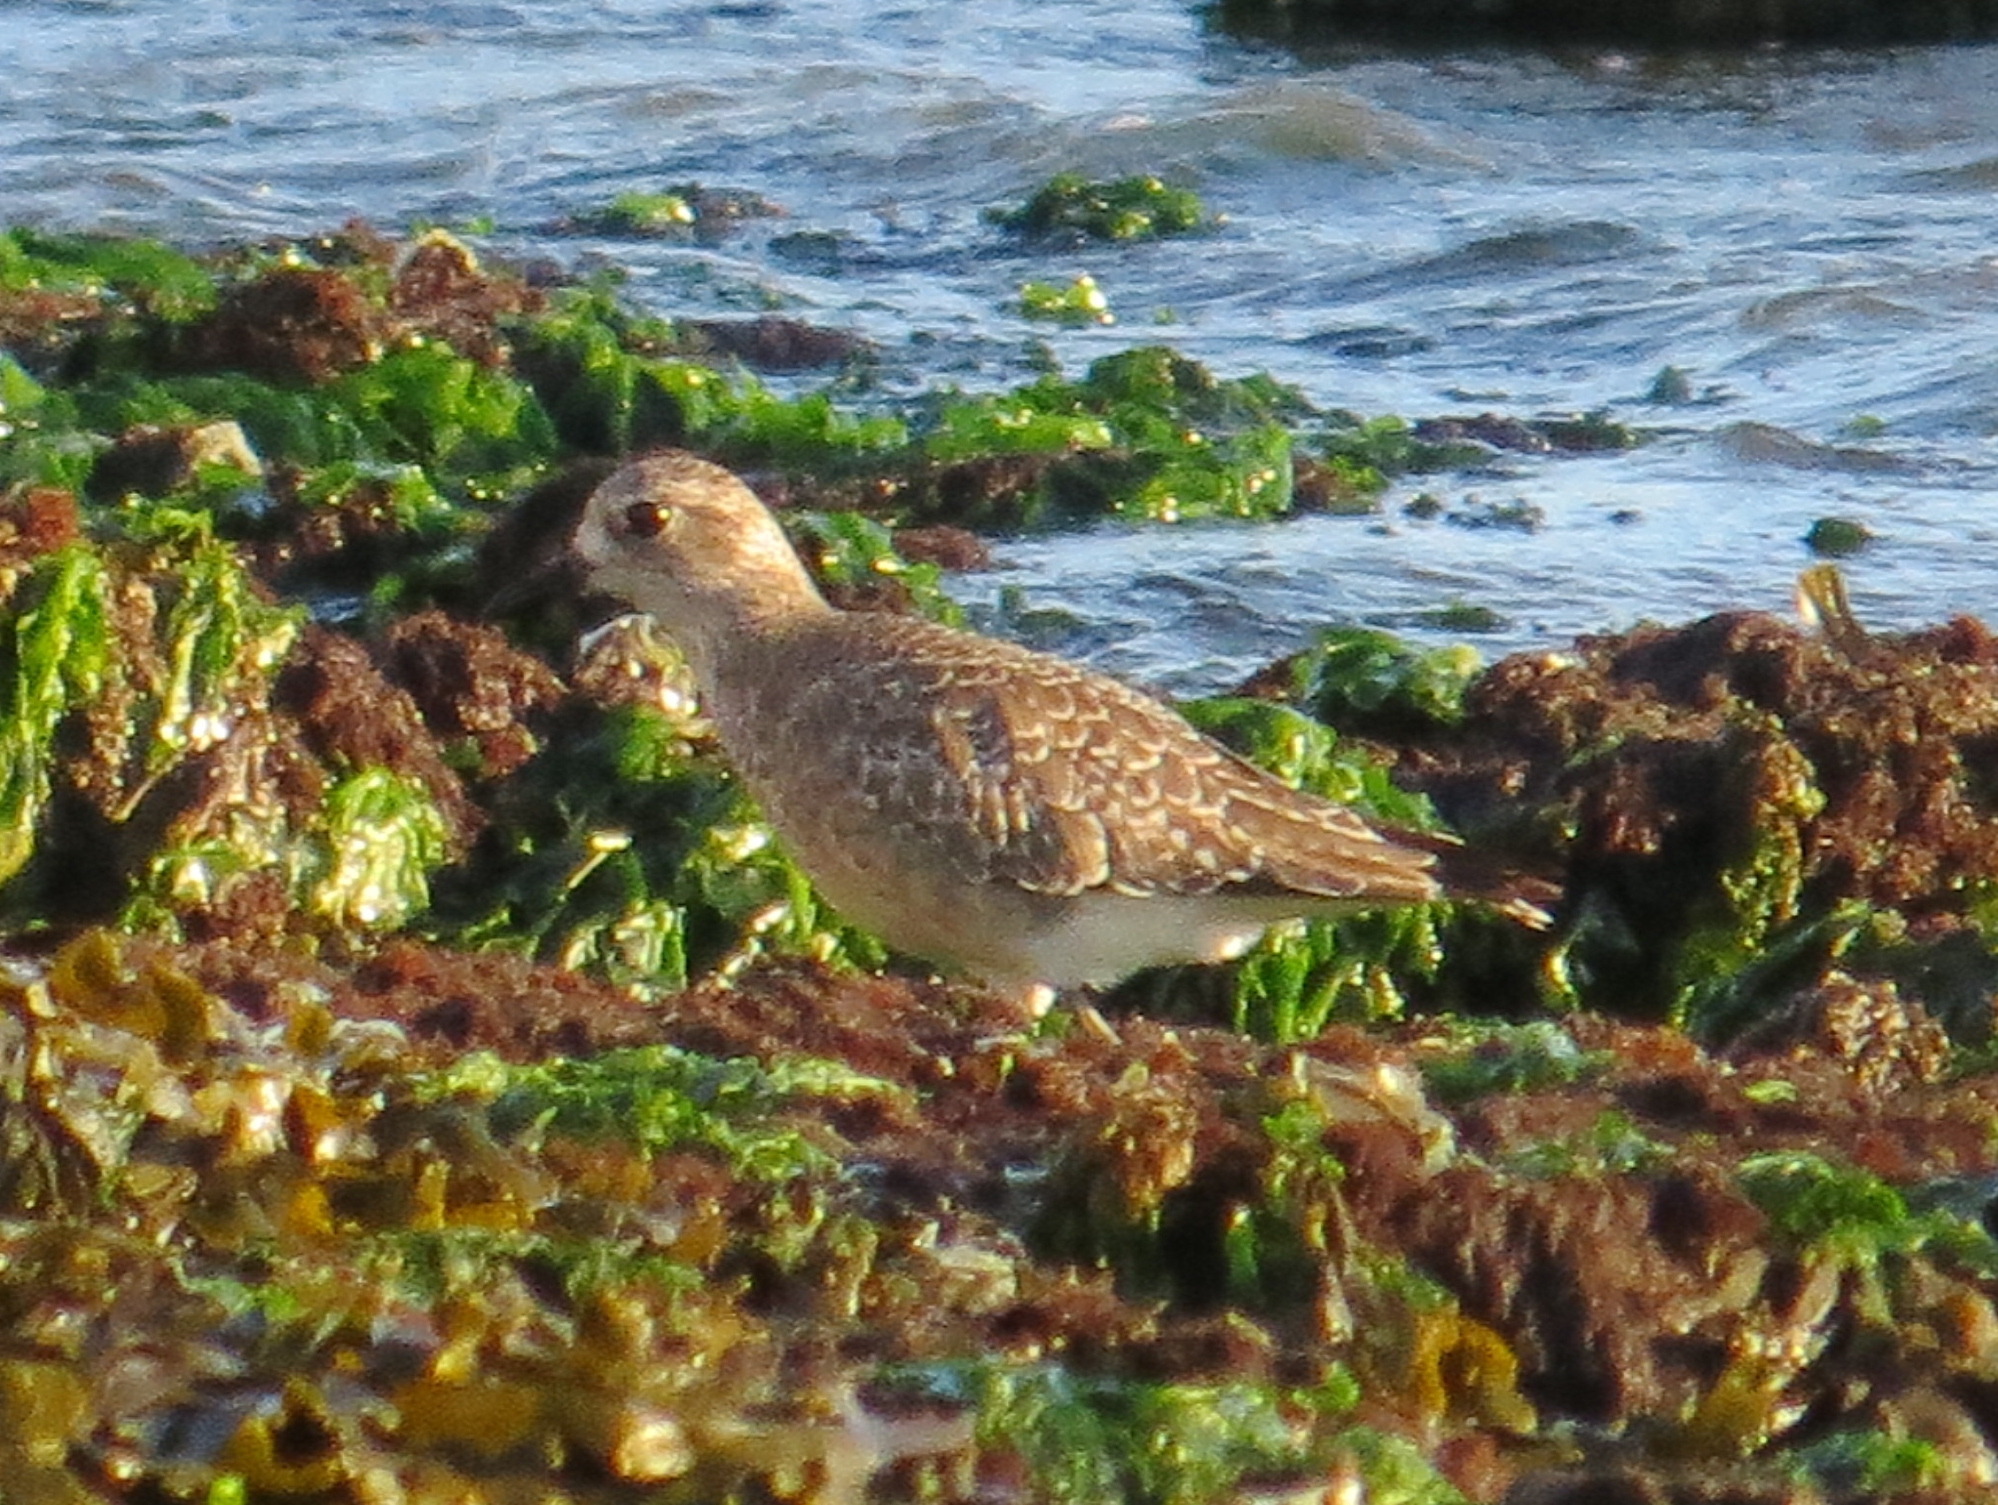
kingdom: Animalia
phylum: Chordata
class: Aves
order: Charadriiformes
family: Charadriidae
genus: Pluvialis
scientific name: Pluvialis squatarola
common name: Grey plover
